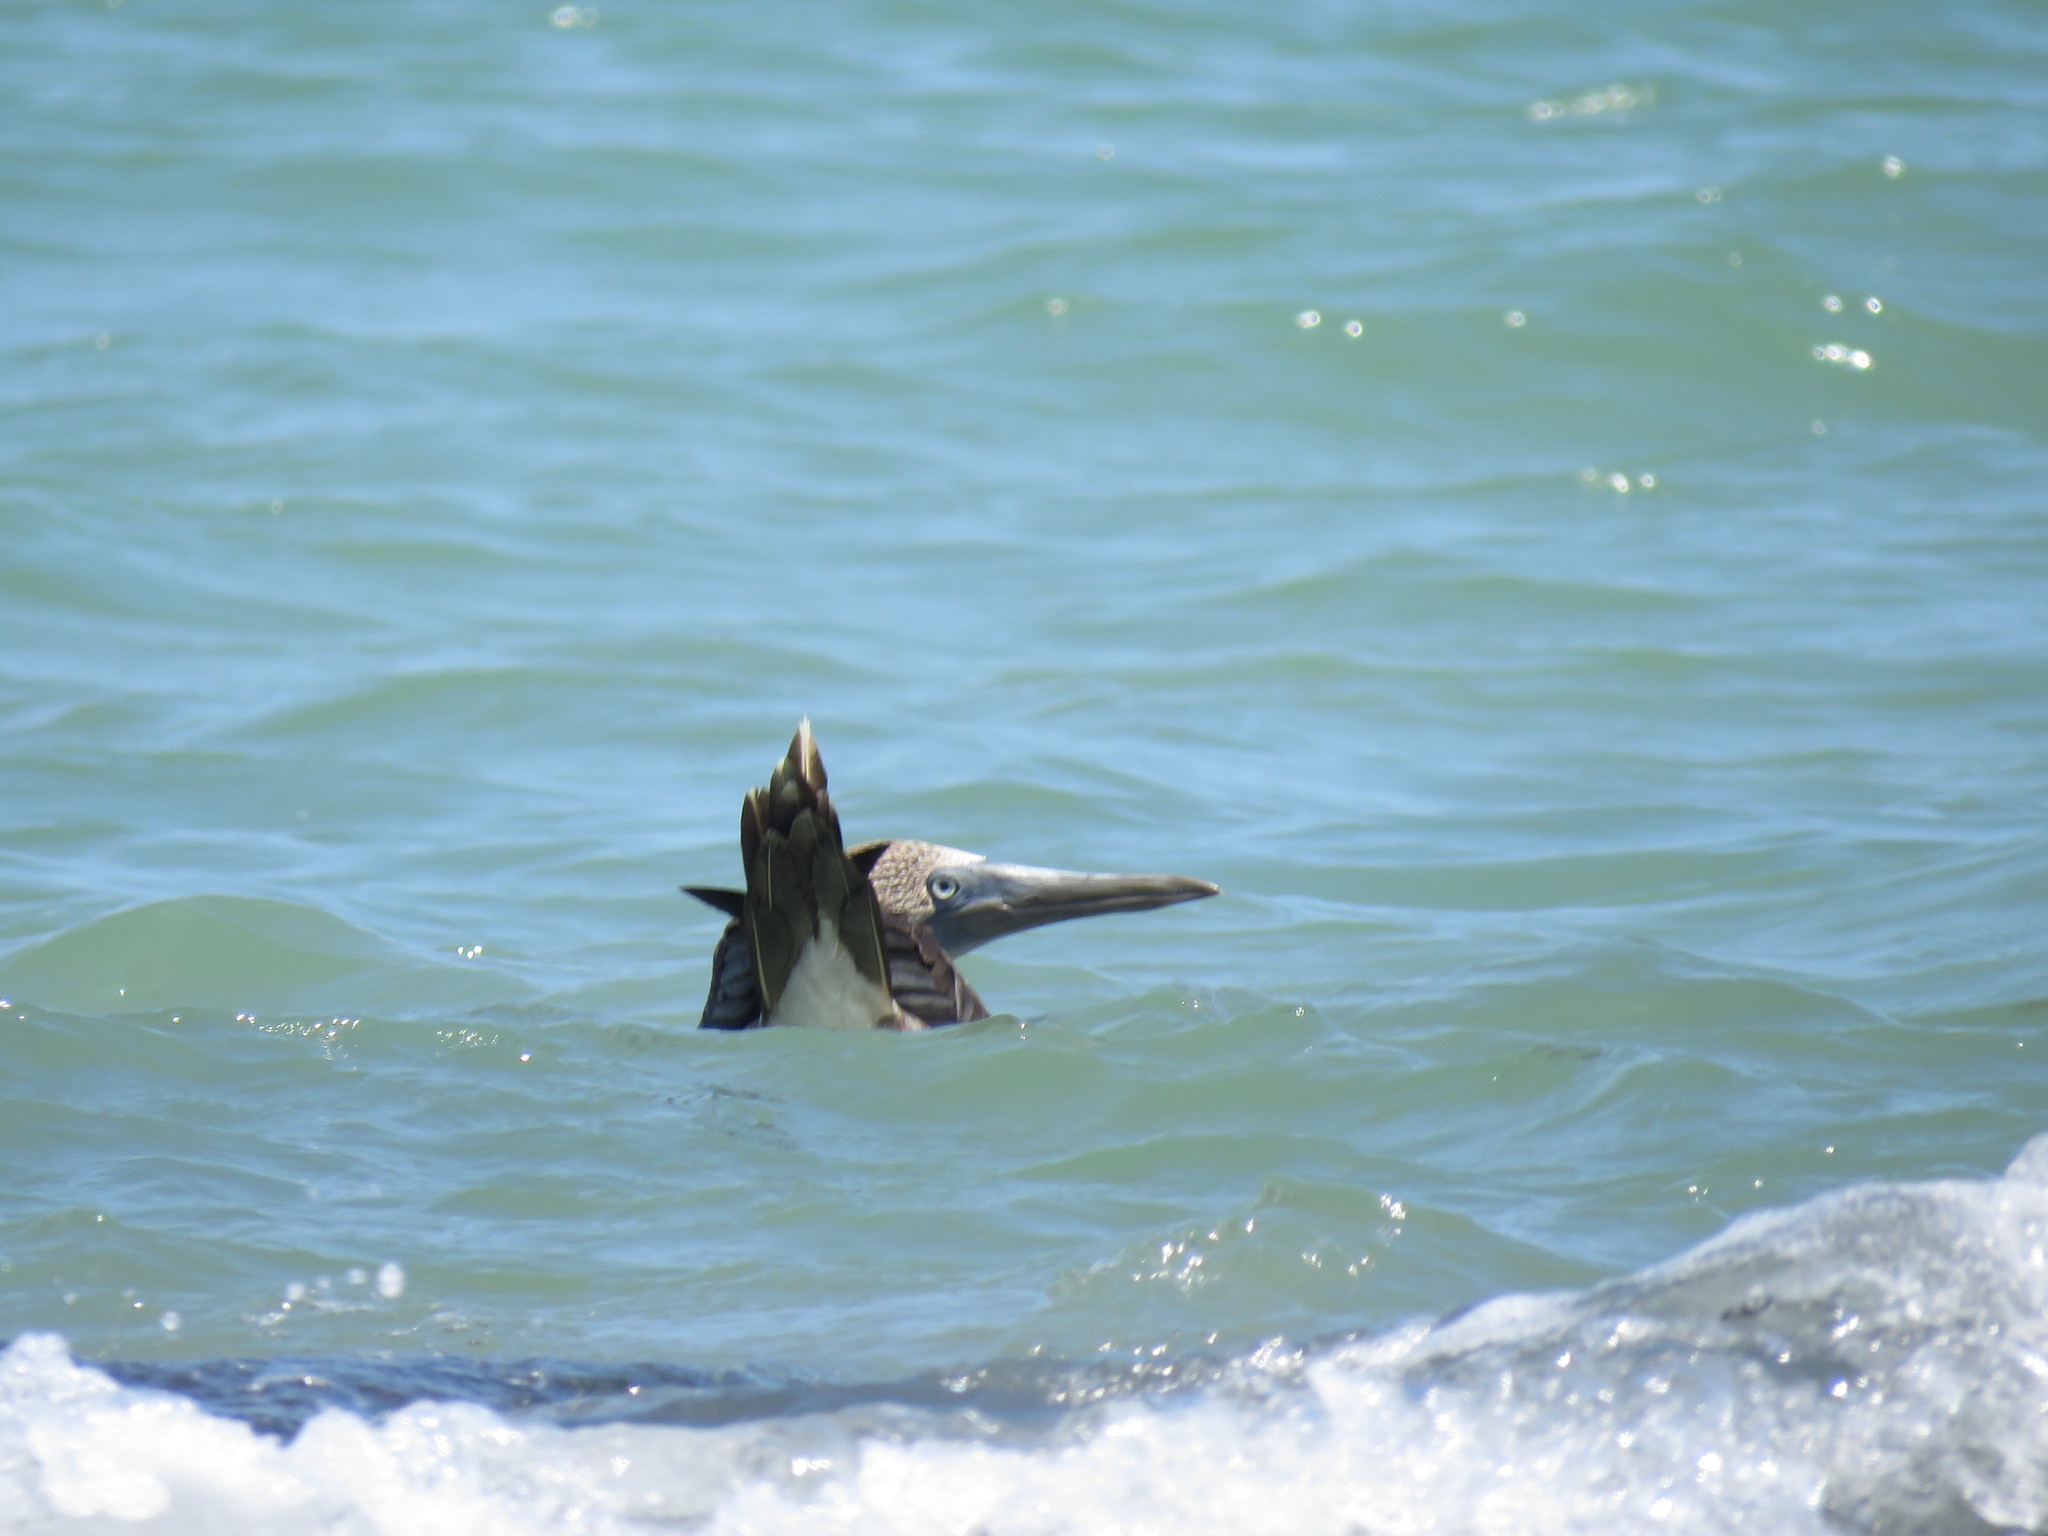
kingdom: Animalia
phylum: Chordata
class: Aves
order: Suliformes
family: Sulidae
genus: Sula
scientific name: Sula nebouxii
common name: Blue-footed booby
